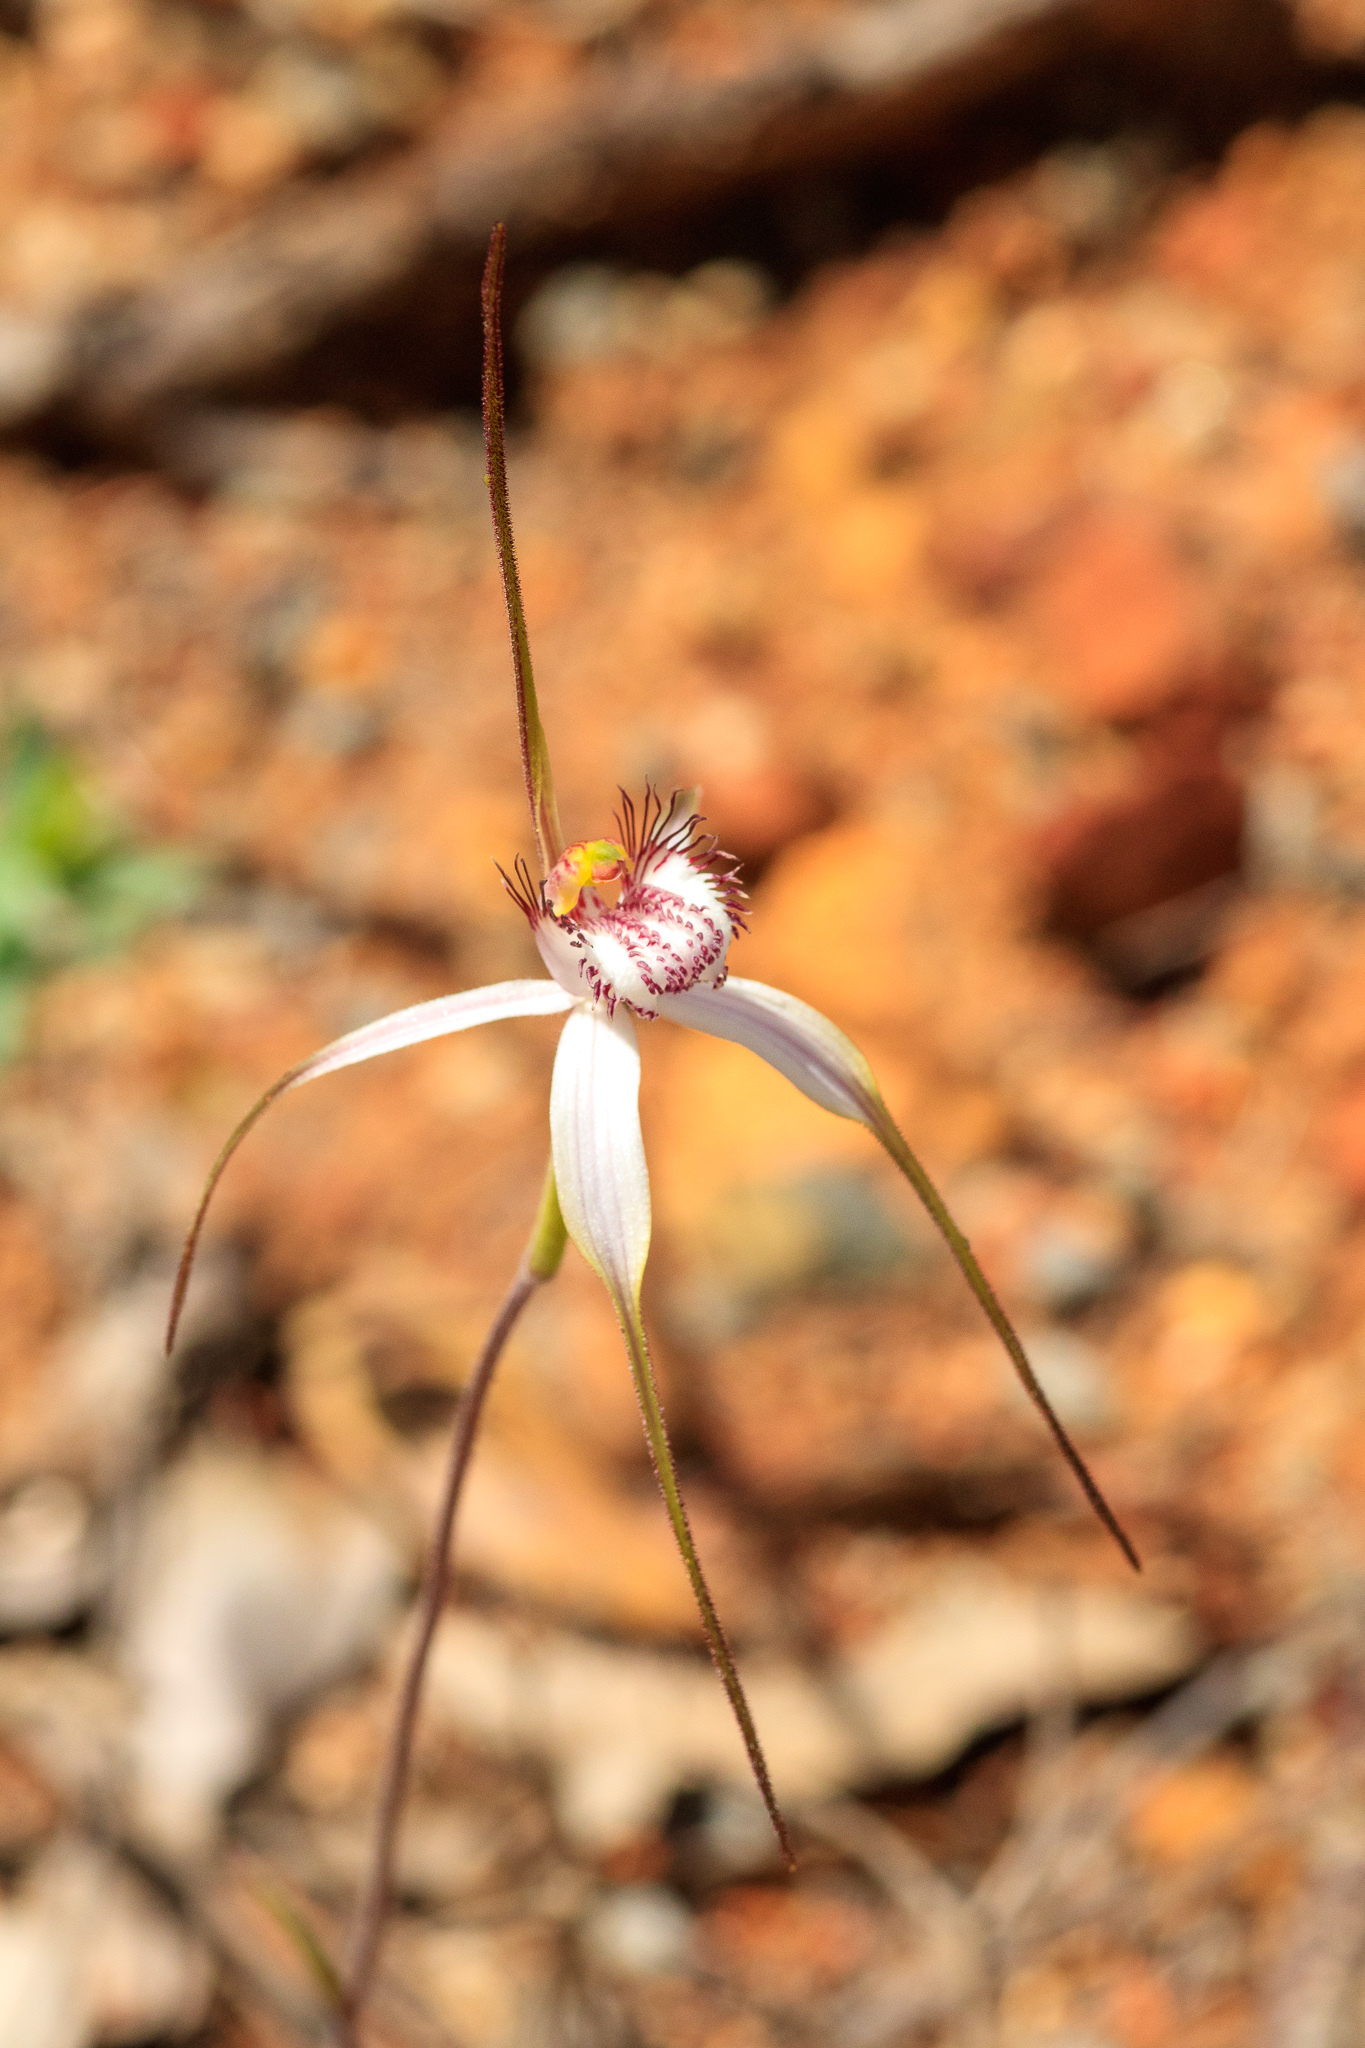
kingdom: Plantae
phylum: Tracheophyta
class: Liliopsida
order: Asparagales
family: Orchidaceae
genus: Caladenia
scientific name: Caladenia longicauda
